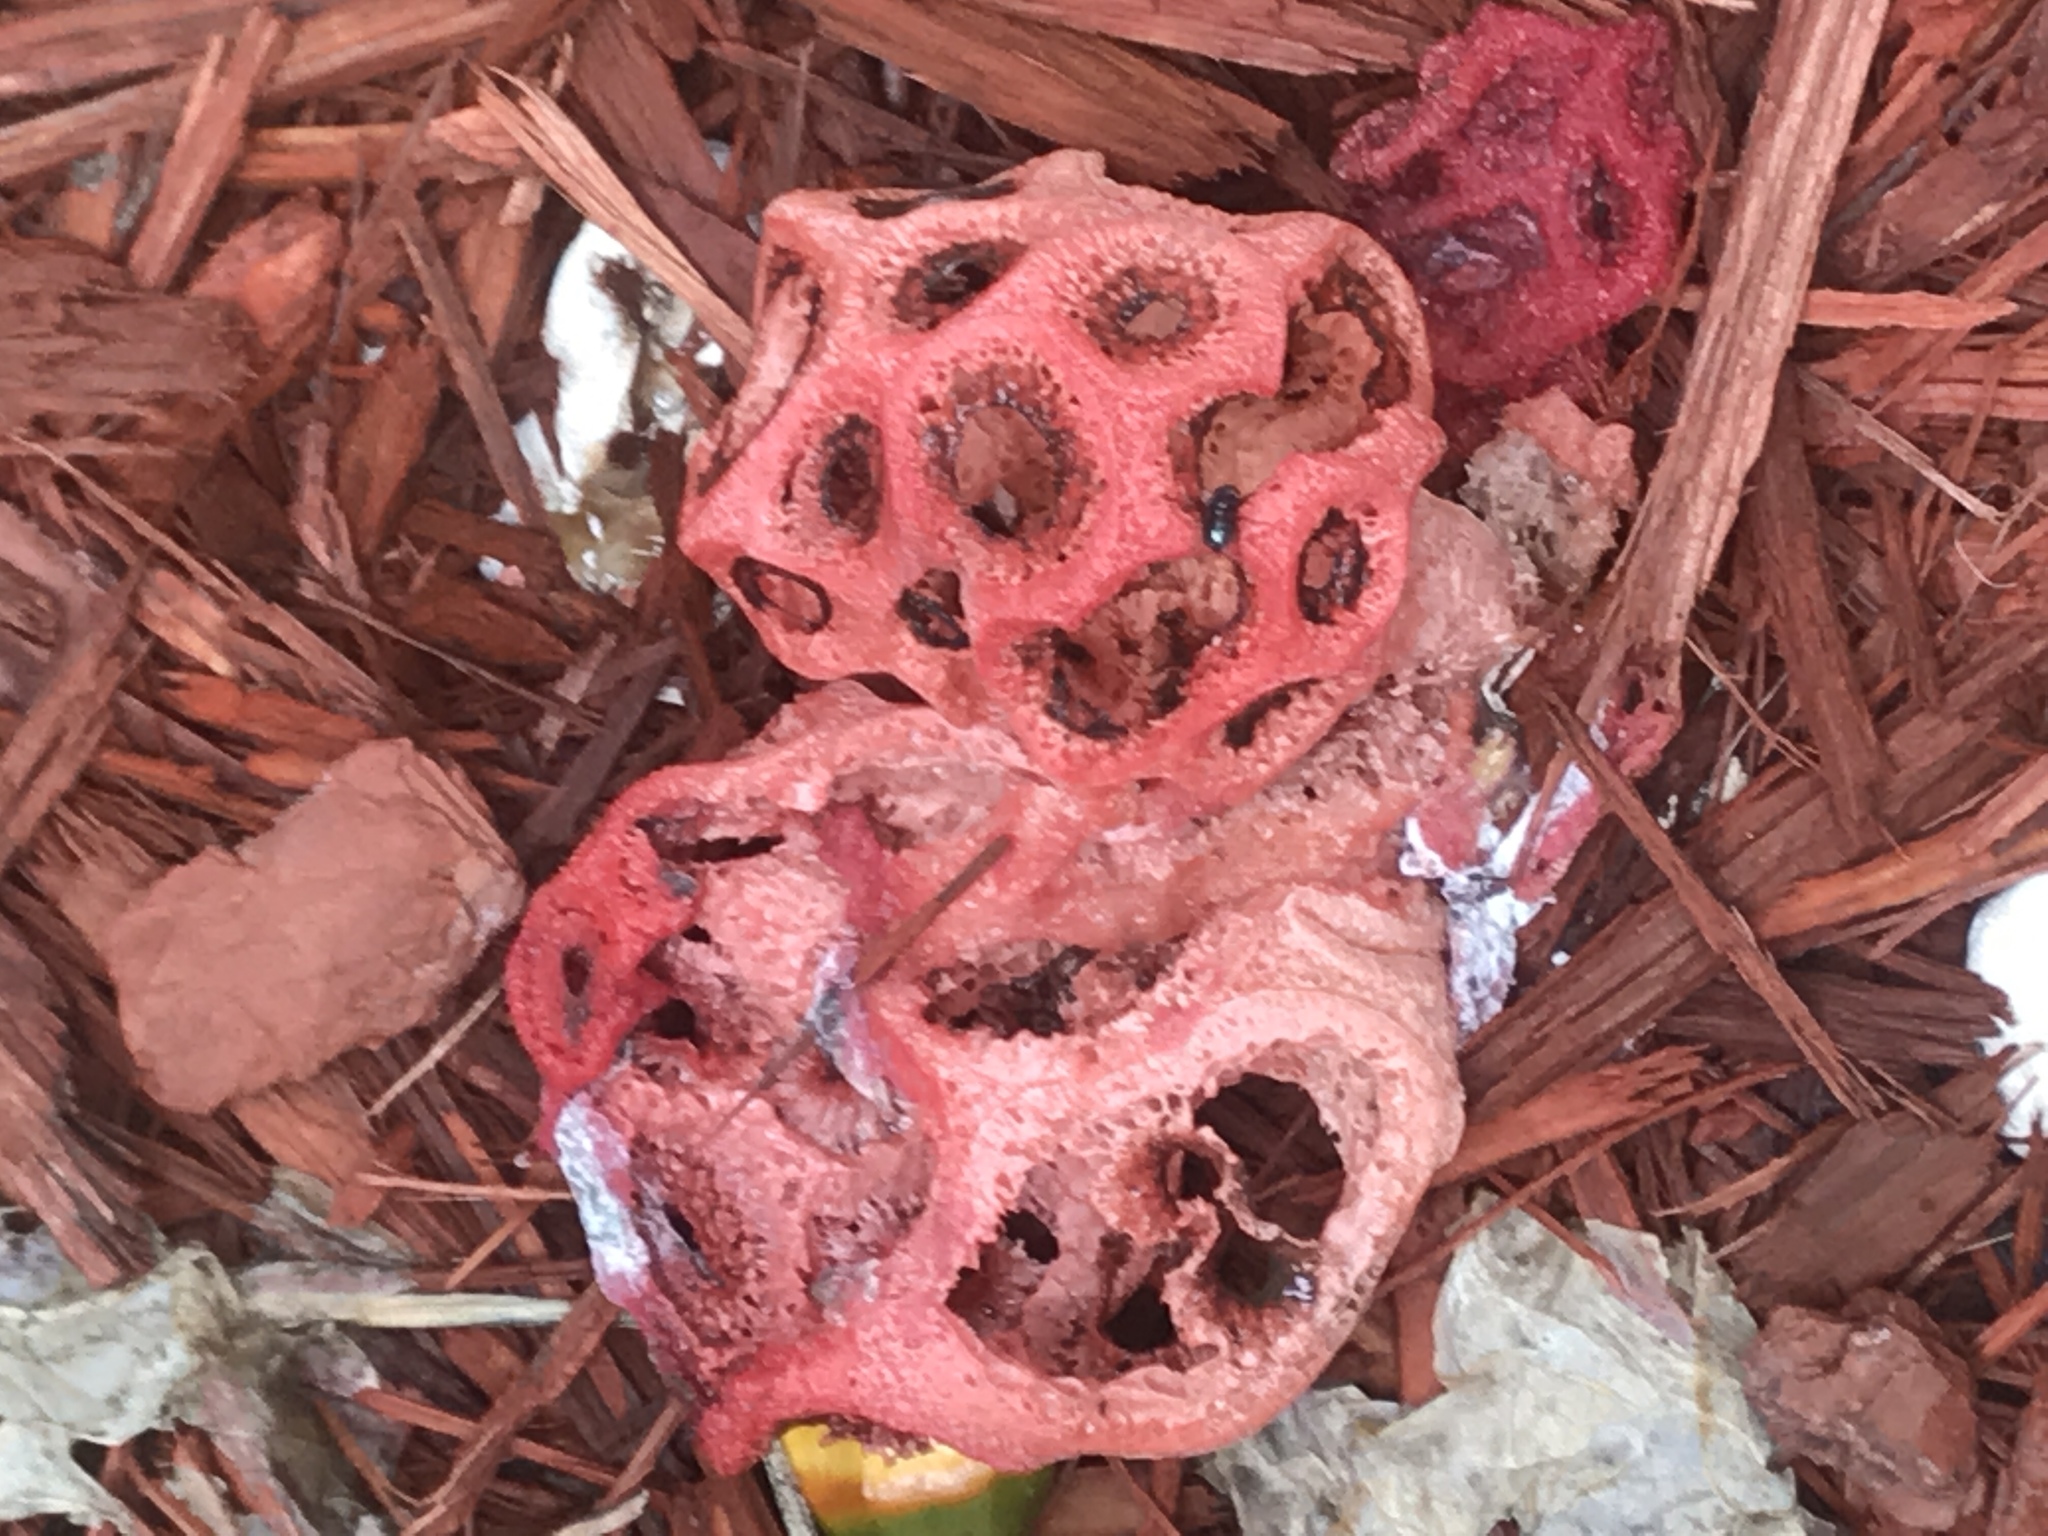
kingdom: Fungi
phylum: Basidiomycota
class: Agaricomycetes
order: Phallales
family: Phallaceae
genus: Clathrus
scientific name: Clathrus crispatus
